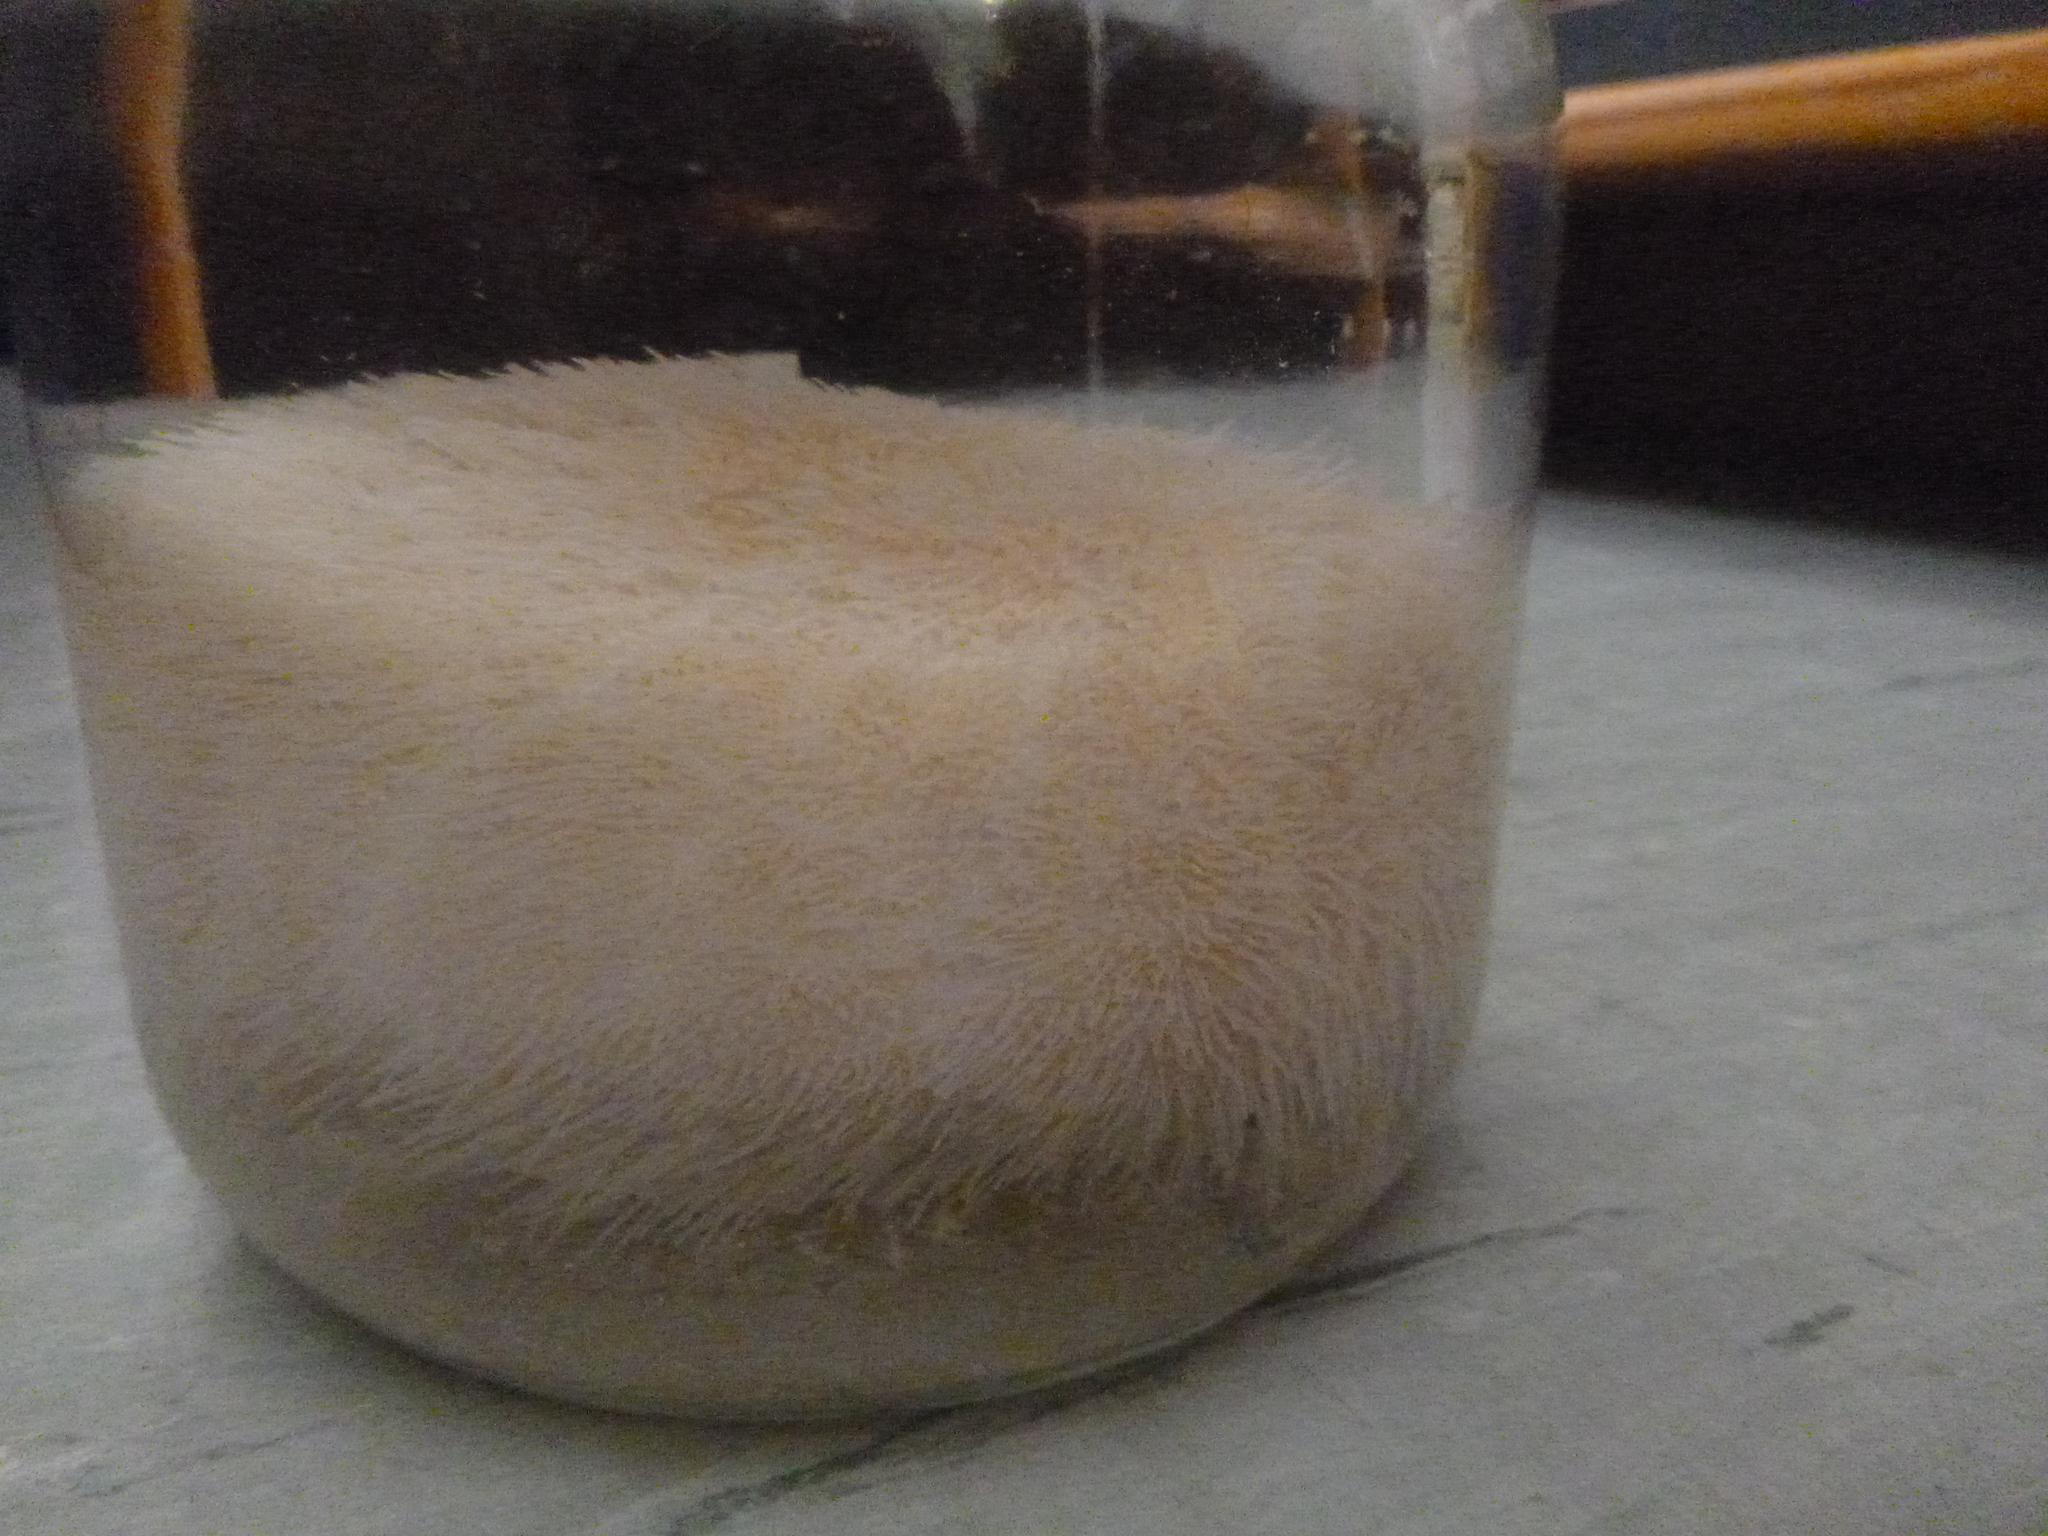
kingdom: Animalia
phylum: Echinodermata
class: Echinoidea
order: Spatangoida
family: Brissidae
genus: Brissus
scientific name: Brissus gigas
